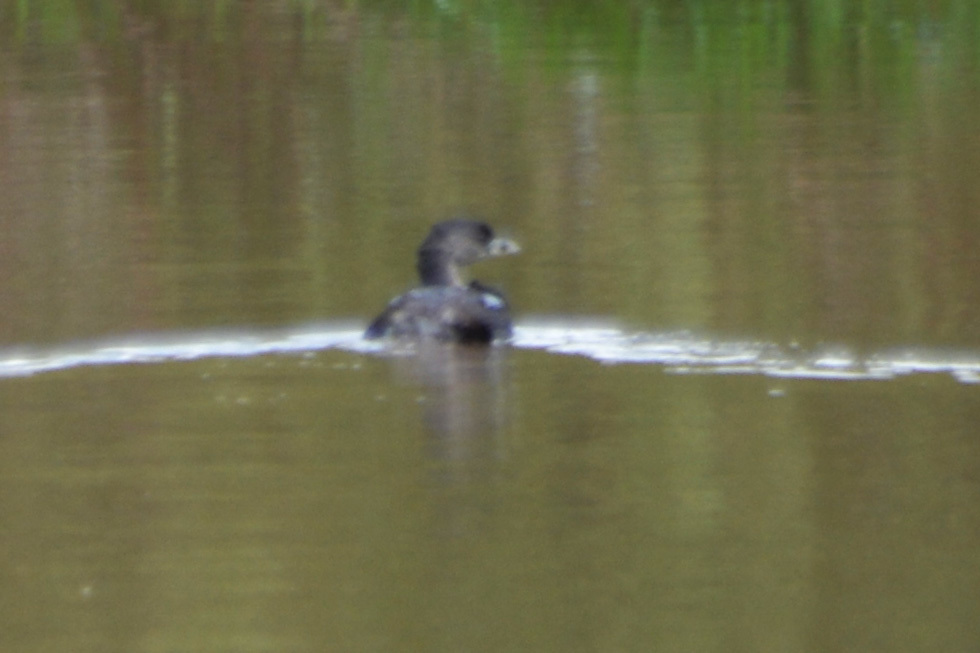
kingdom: Animalia
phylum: Chordata
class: Aves
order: Podicipediformes
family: Podicipedidae
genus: Podilymbus
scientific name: Podilymbus podiceps
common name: Pied-billed grebe
